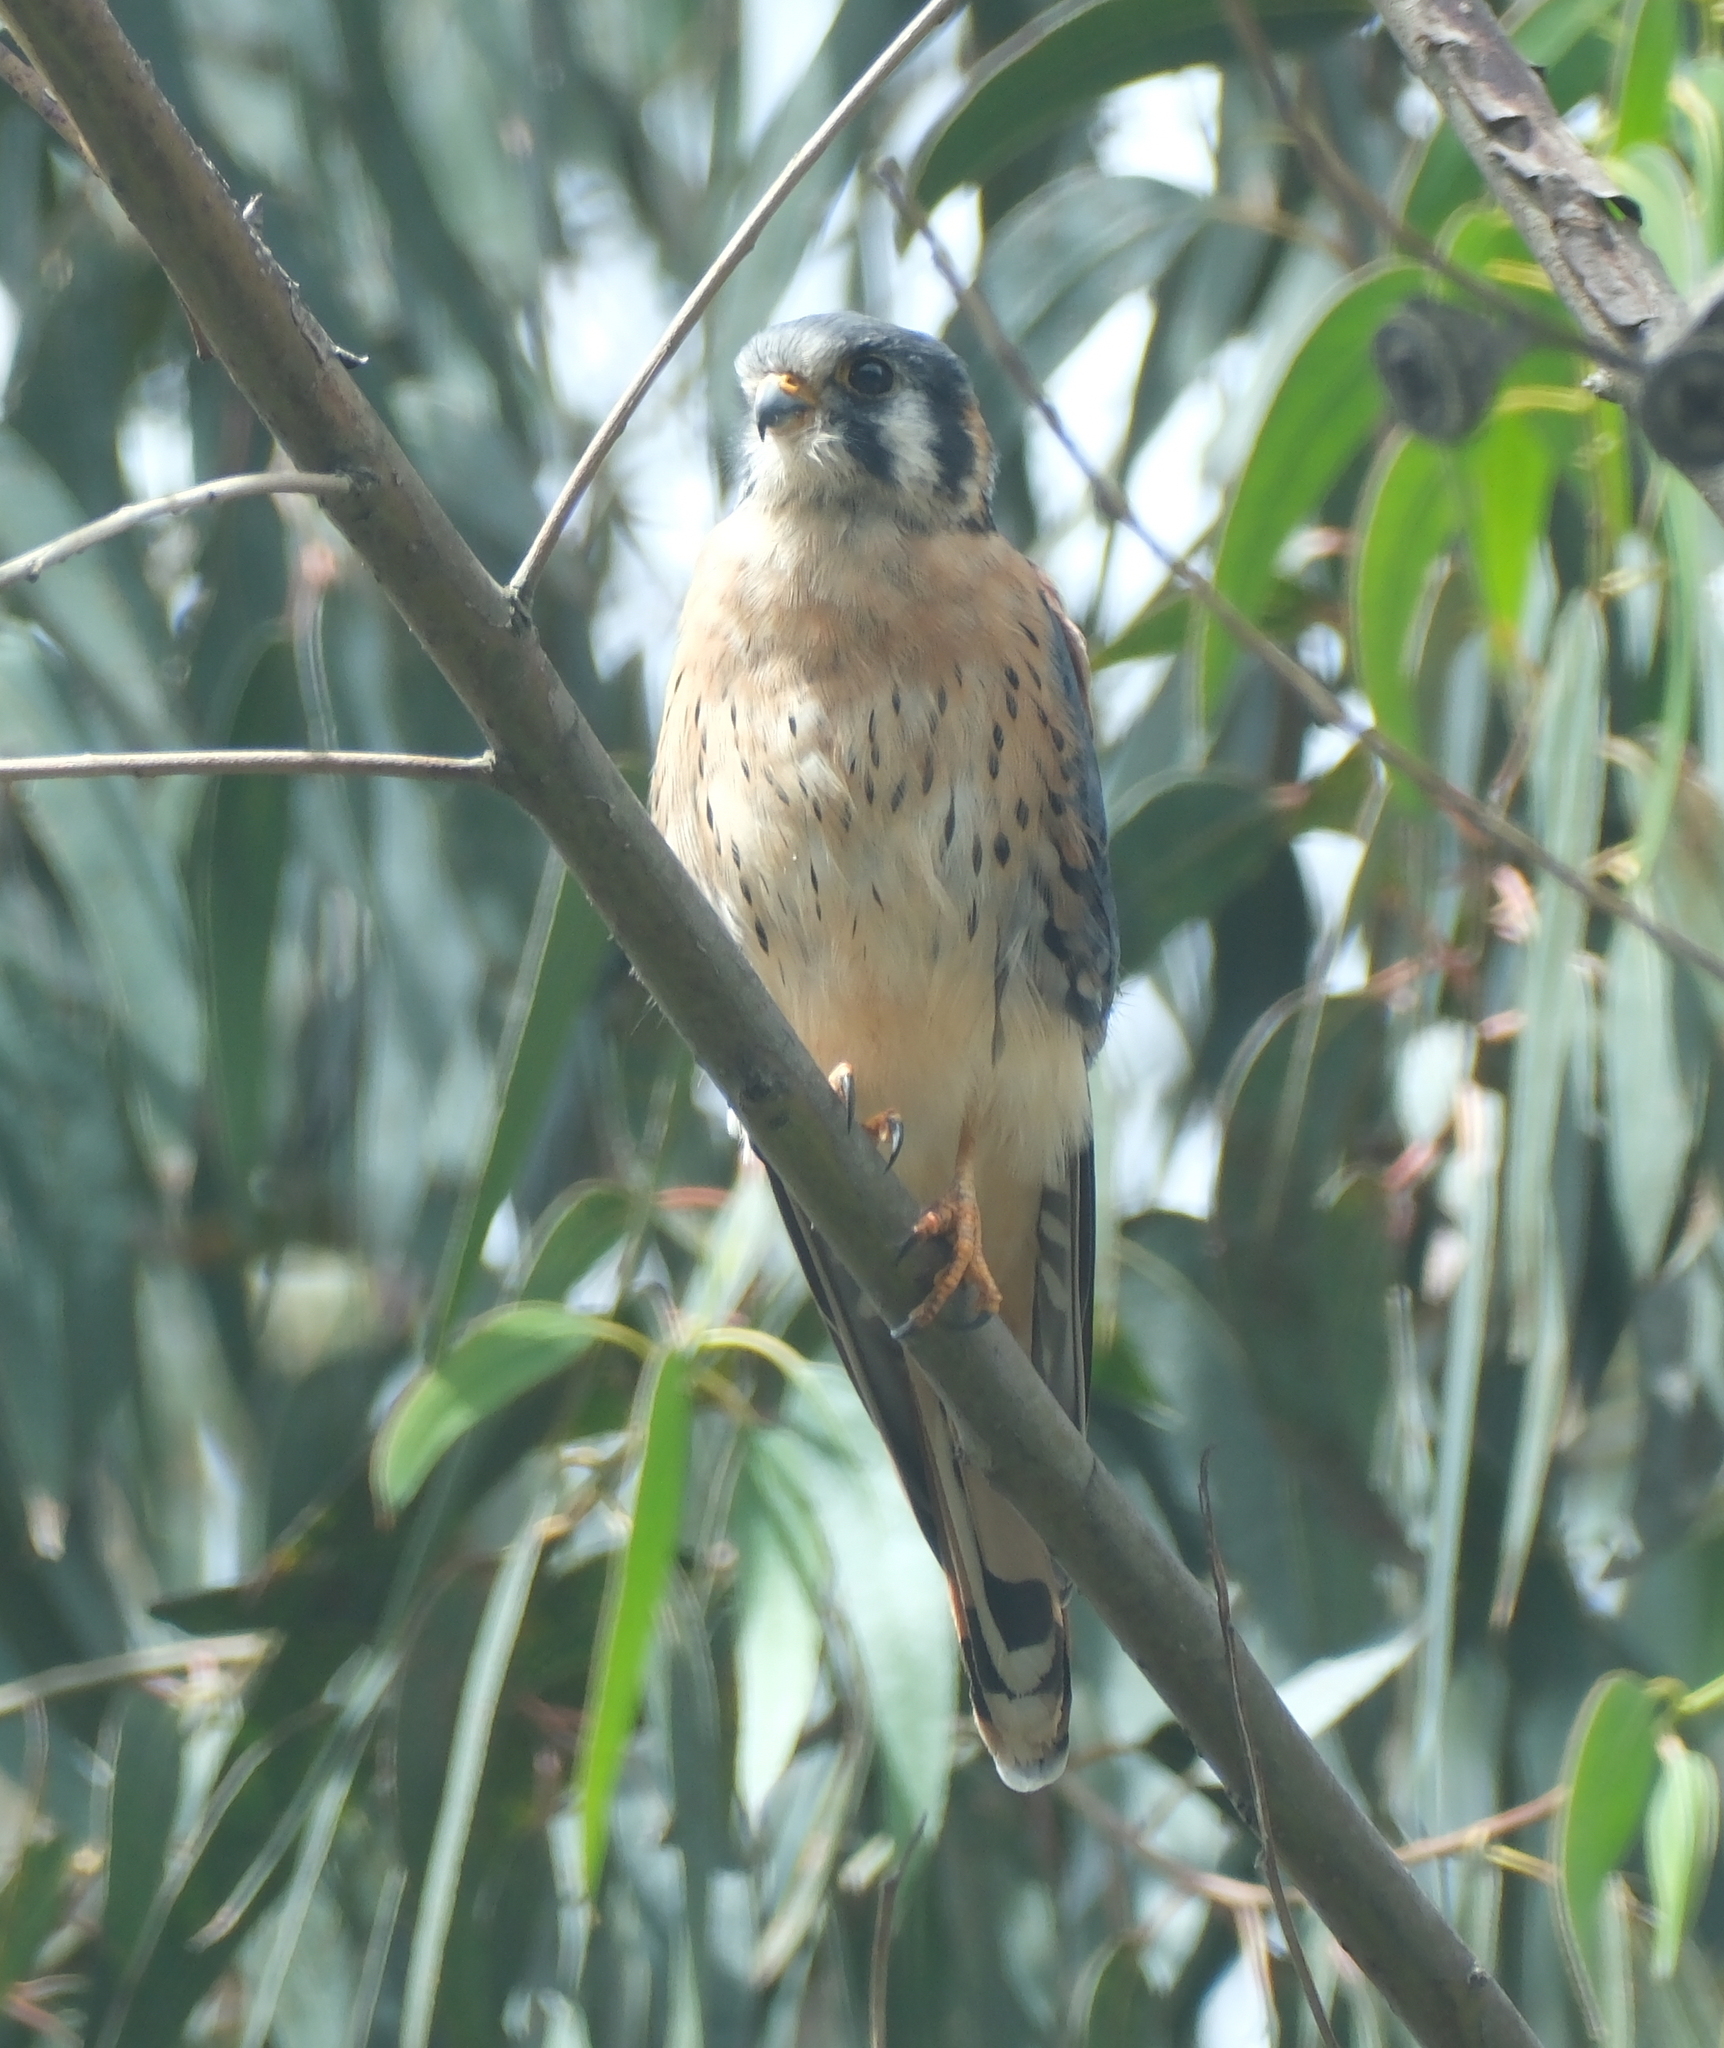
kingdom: Animalia
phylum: Chordata
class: Aves
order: Falconiformes
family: Falconidae
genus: Falco
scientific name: Falco sparverius
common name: American kestrel
